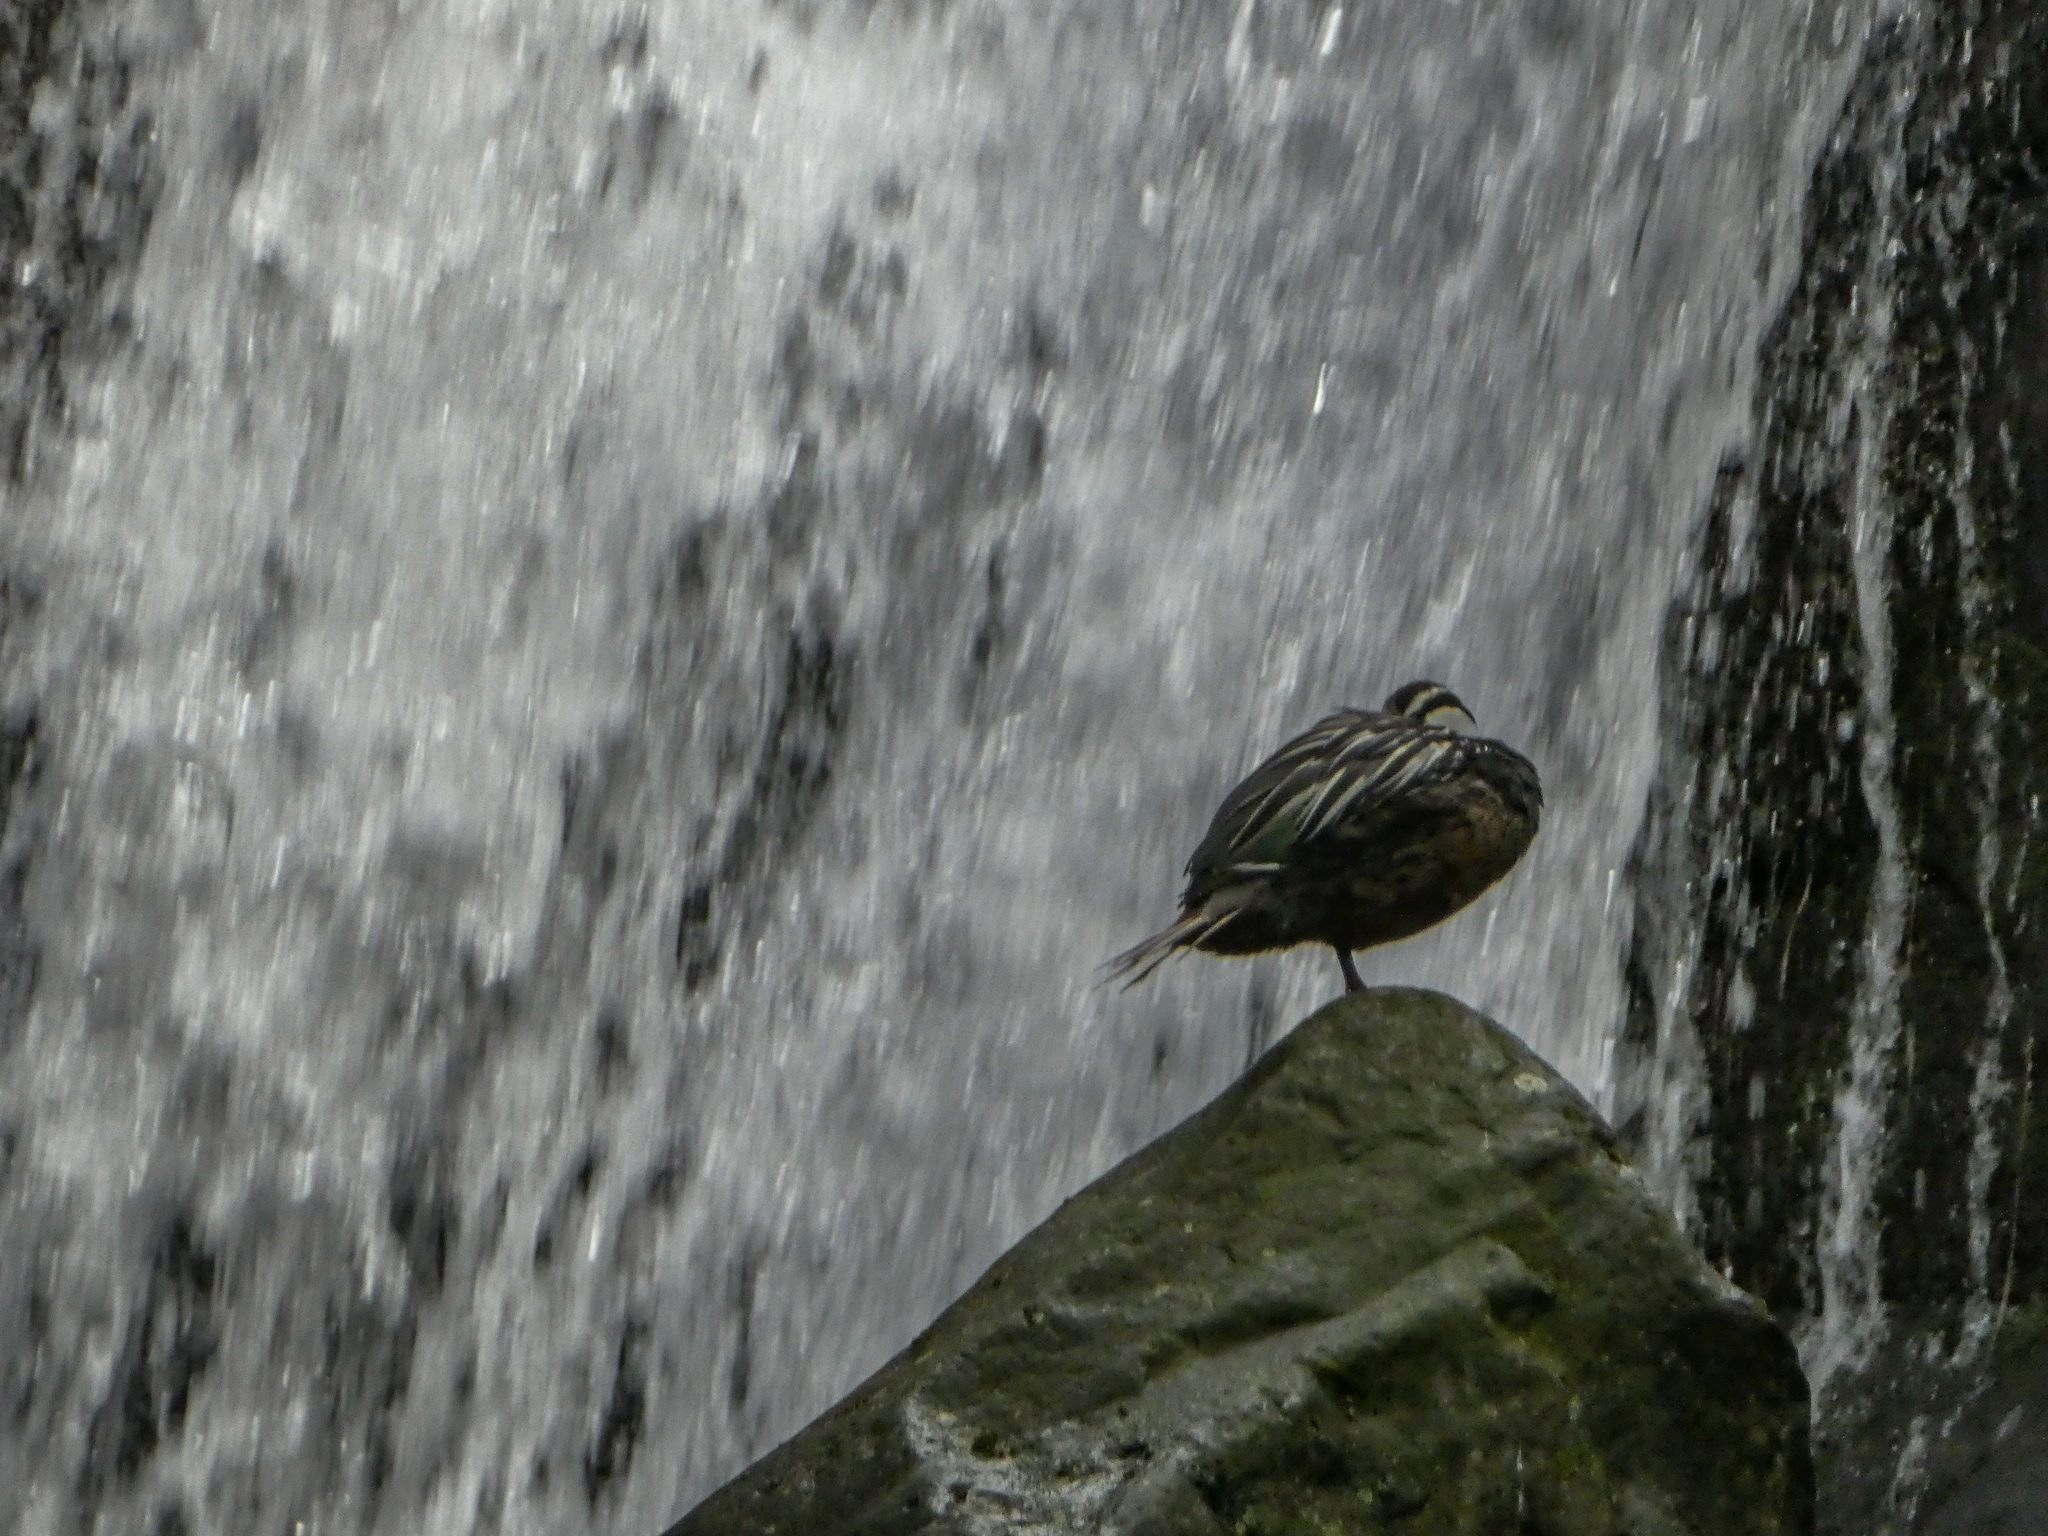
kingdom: Animalia
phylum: Chordata
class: Aves
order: Anseriformes
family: Anatidae
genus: Merganetta
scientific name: Merganetta armata
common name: Torrent duck
